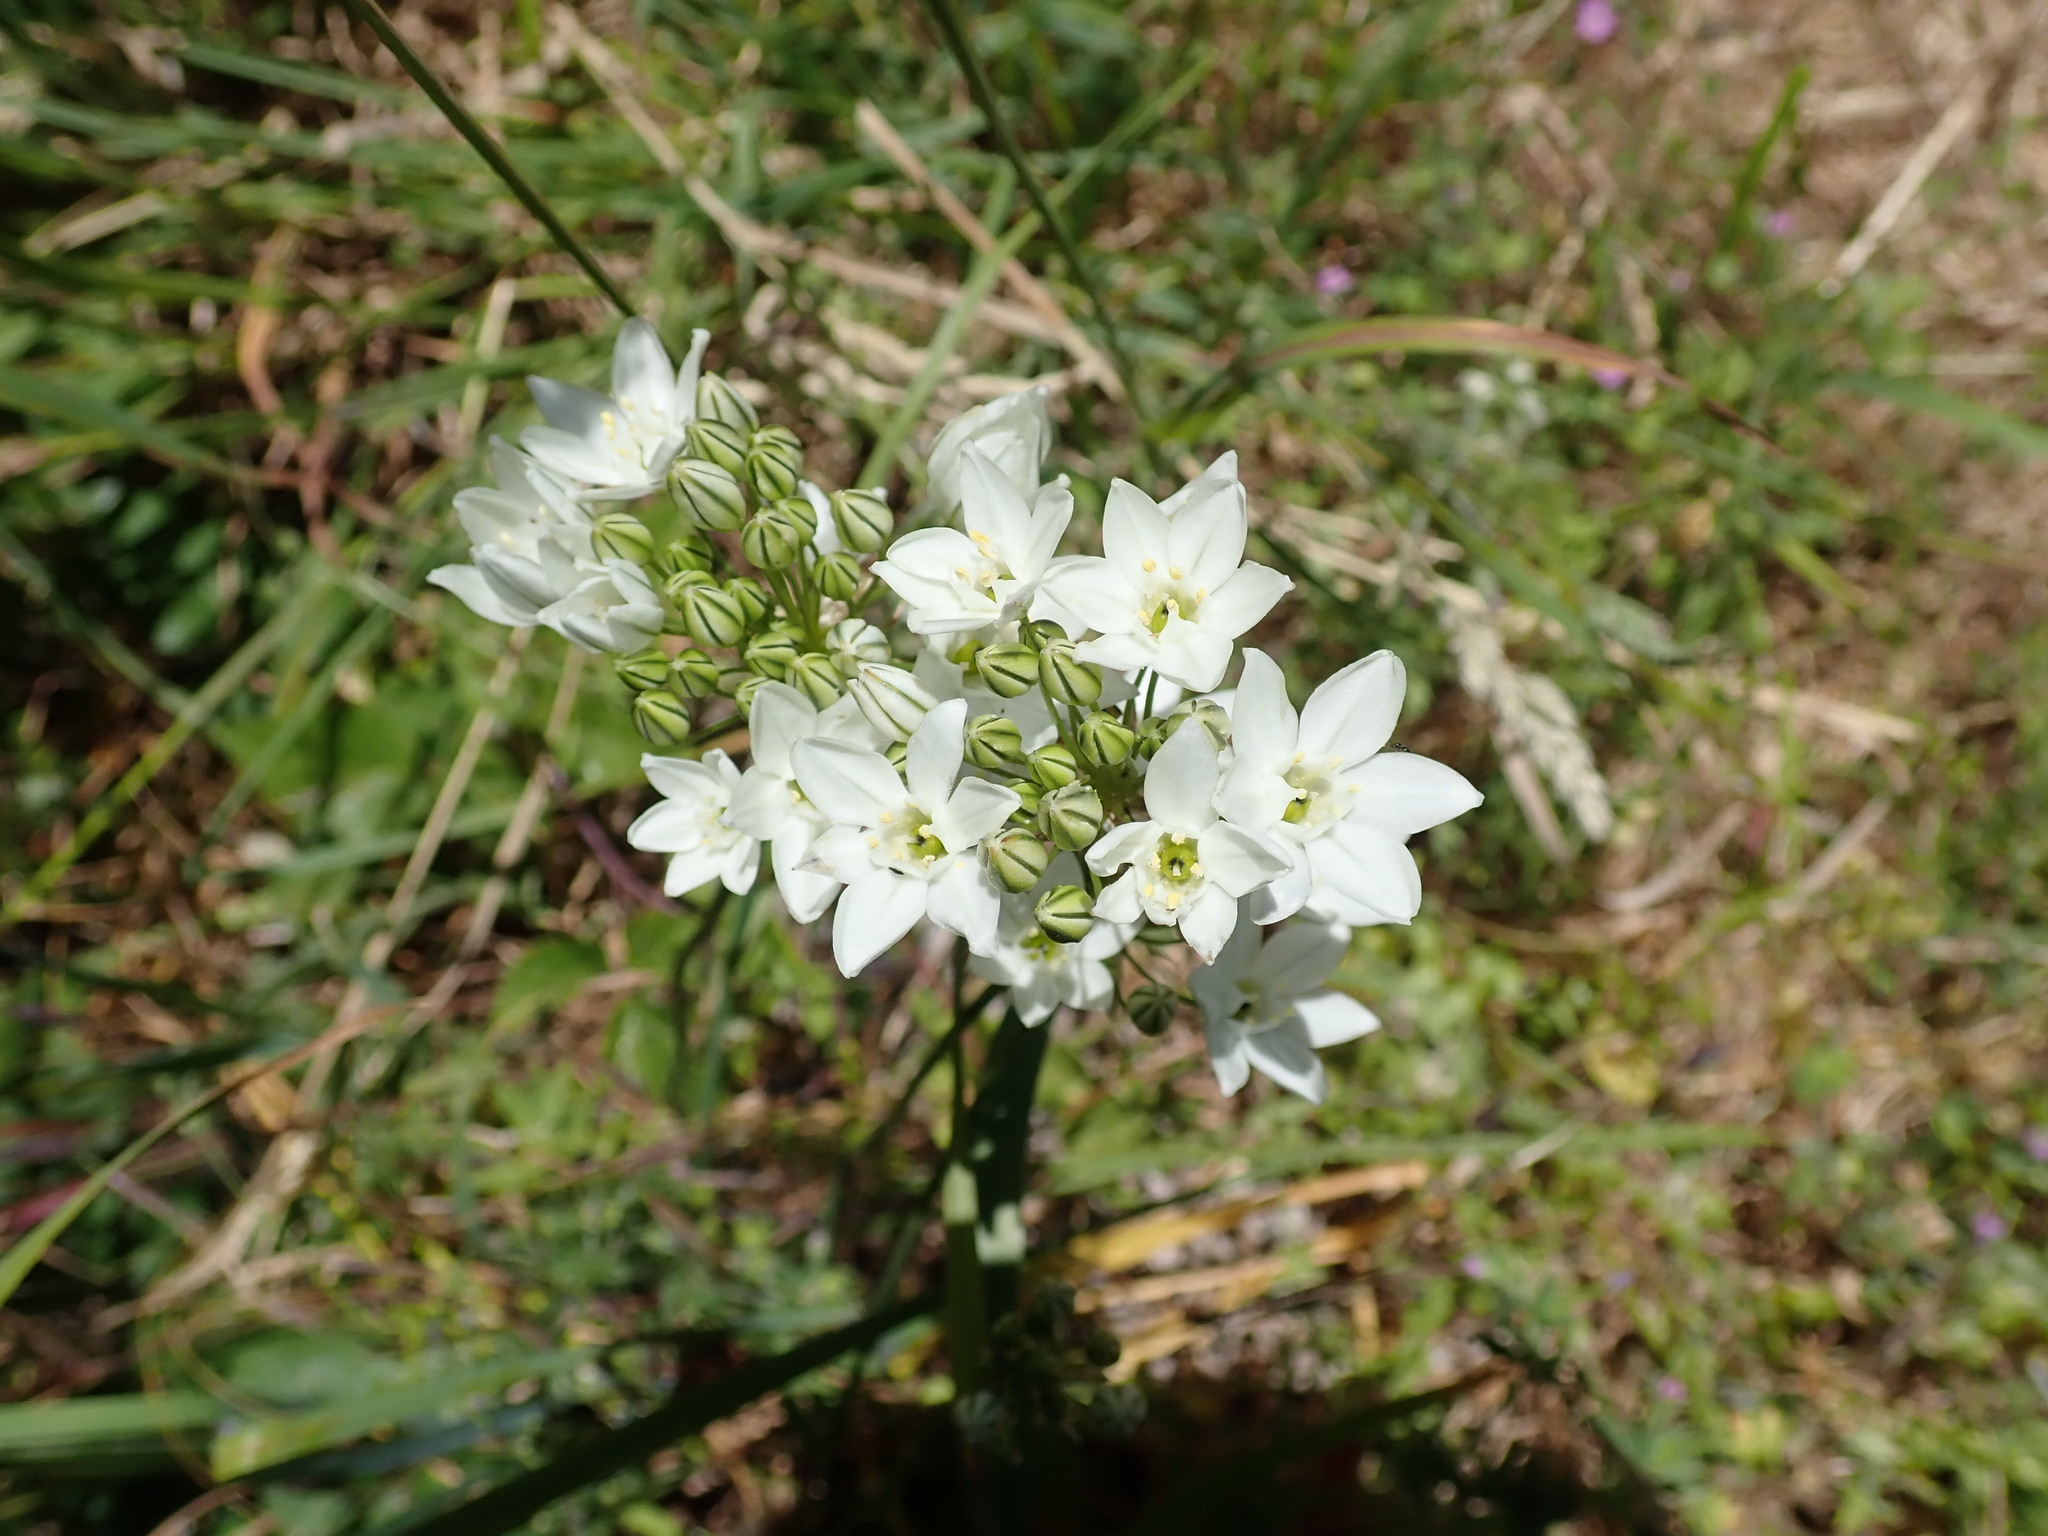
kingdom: Plantae
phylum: Tracheophyta
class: Liliopsida
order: Asparagales
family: Asparagaceae
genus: Triteleia
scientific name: Triteleia hyacinthina
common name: White brodiaea
